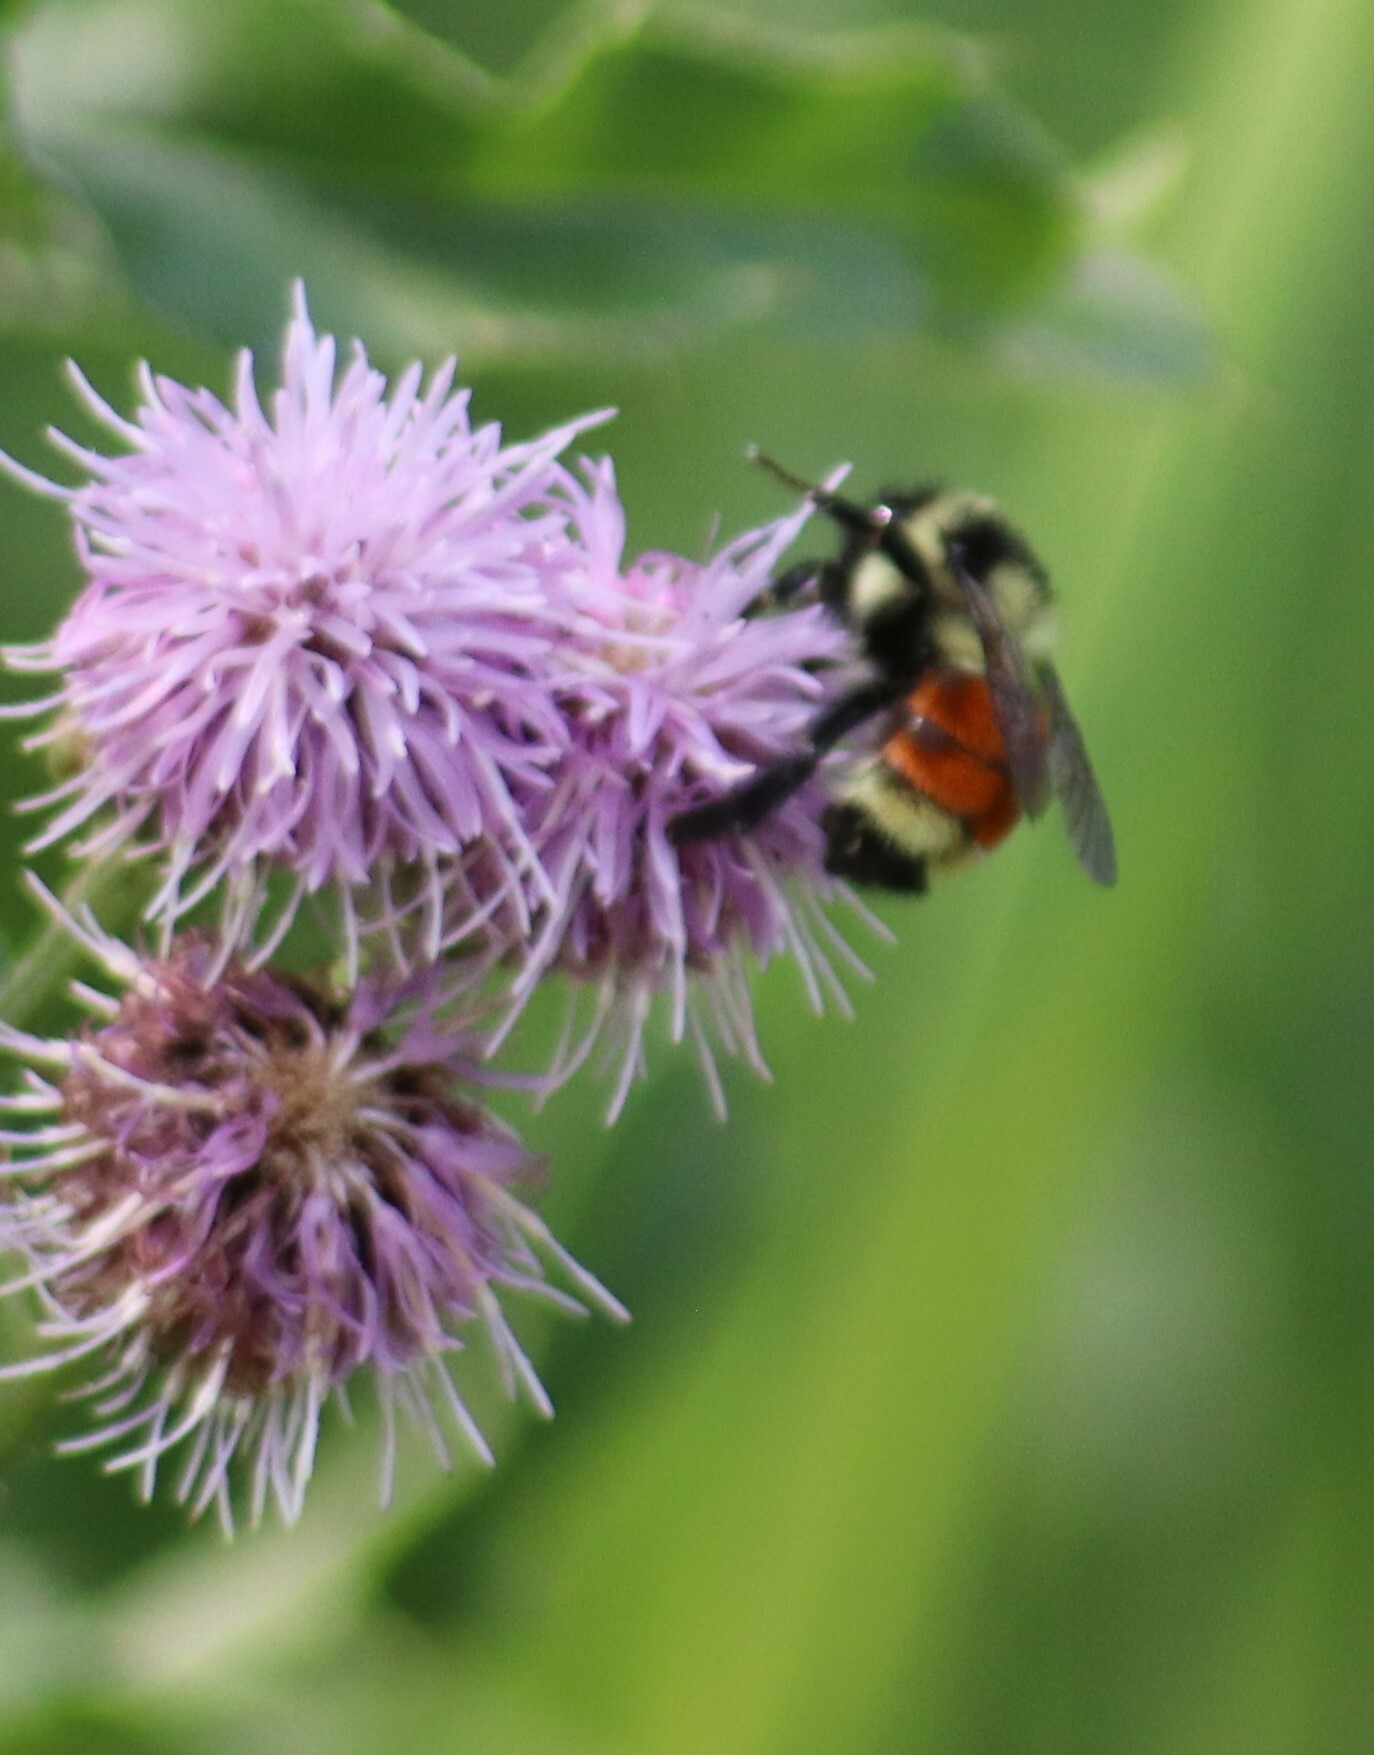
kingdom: Animalia
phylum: Arthropoda
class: Insecta
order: Hymenoptera
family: Apidae
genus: Bombus
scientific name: Bombus ternarius
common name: Tri-colored bumble bee
